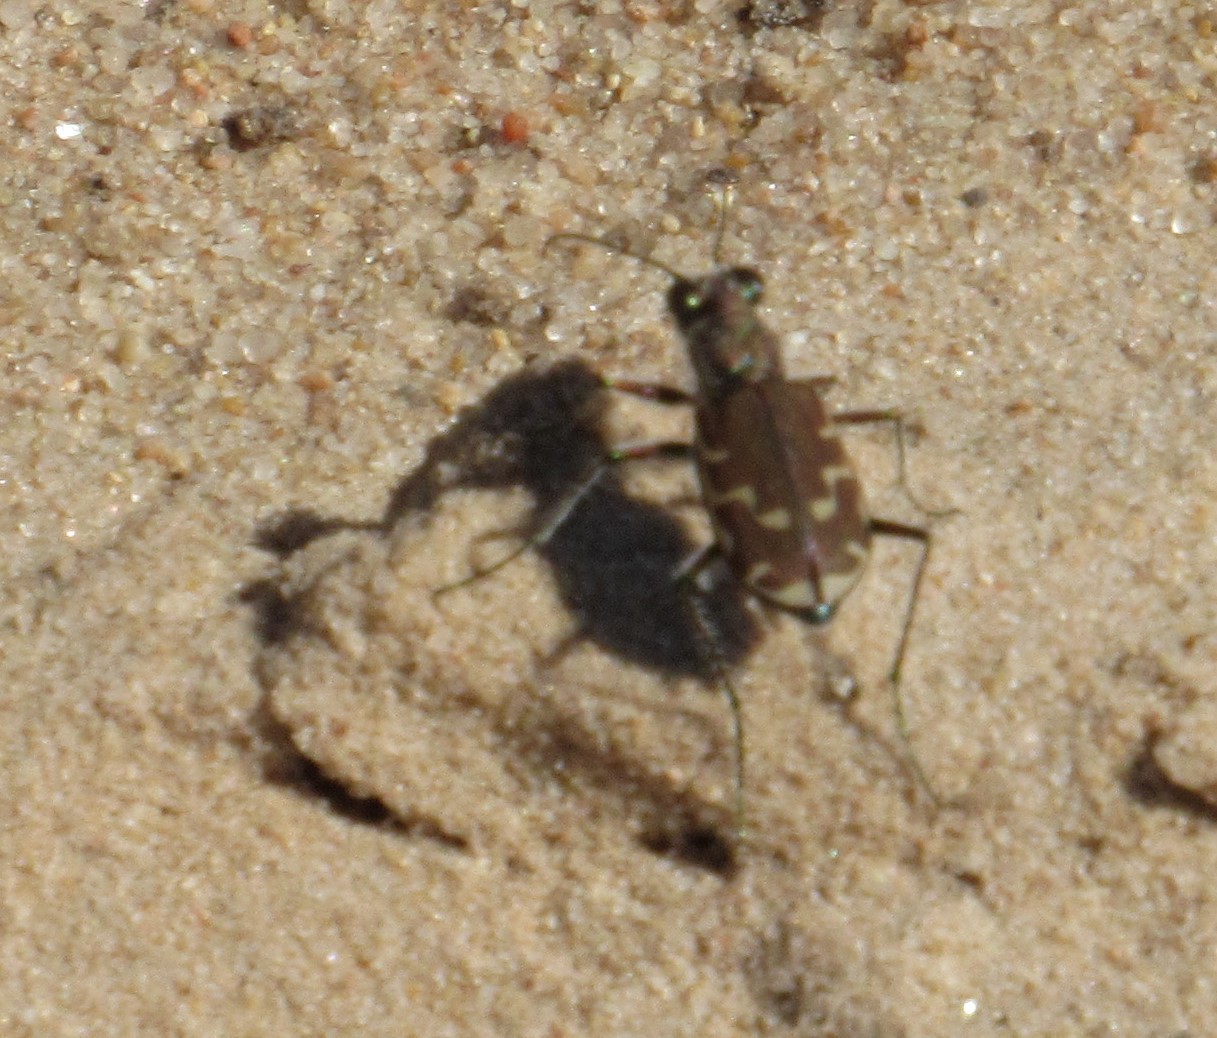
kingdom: Animalia
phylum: Arthropoda
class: Insecta
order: Coleoptera
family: Carabidae
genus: Cicindela
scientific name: Cicindela repanda
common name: Bronzed tiger beetle
